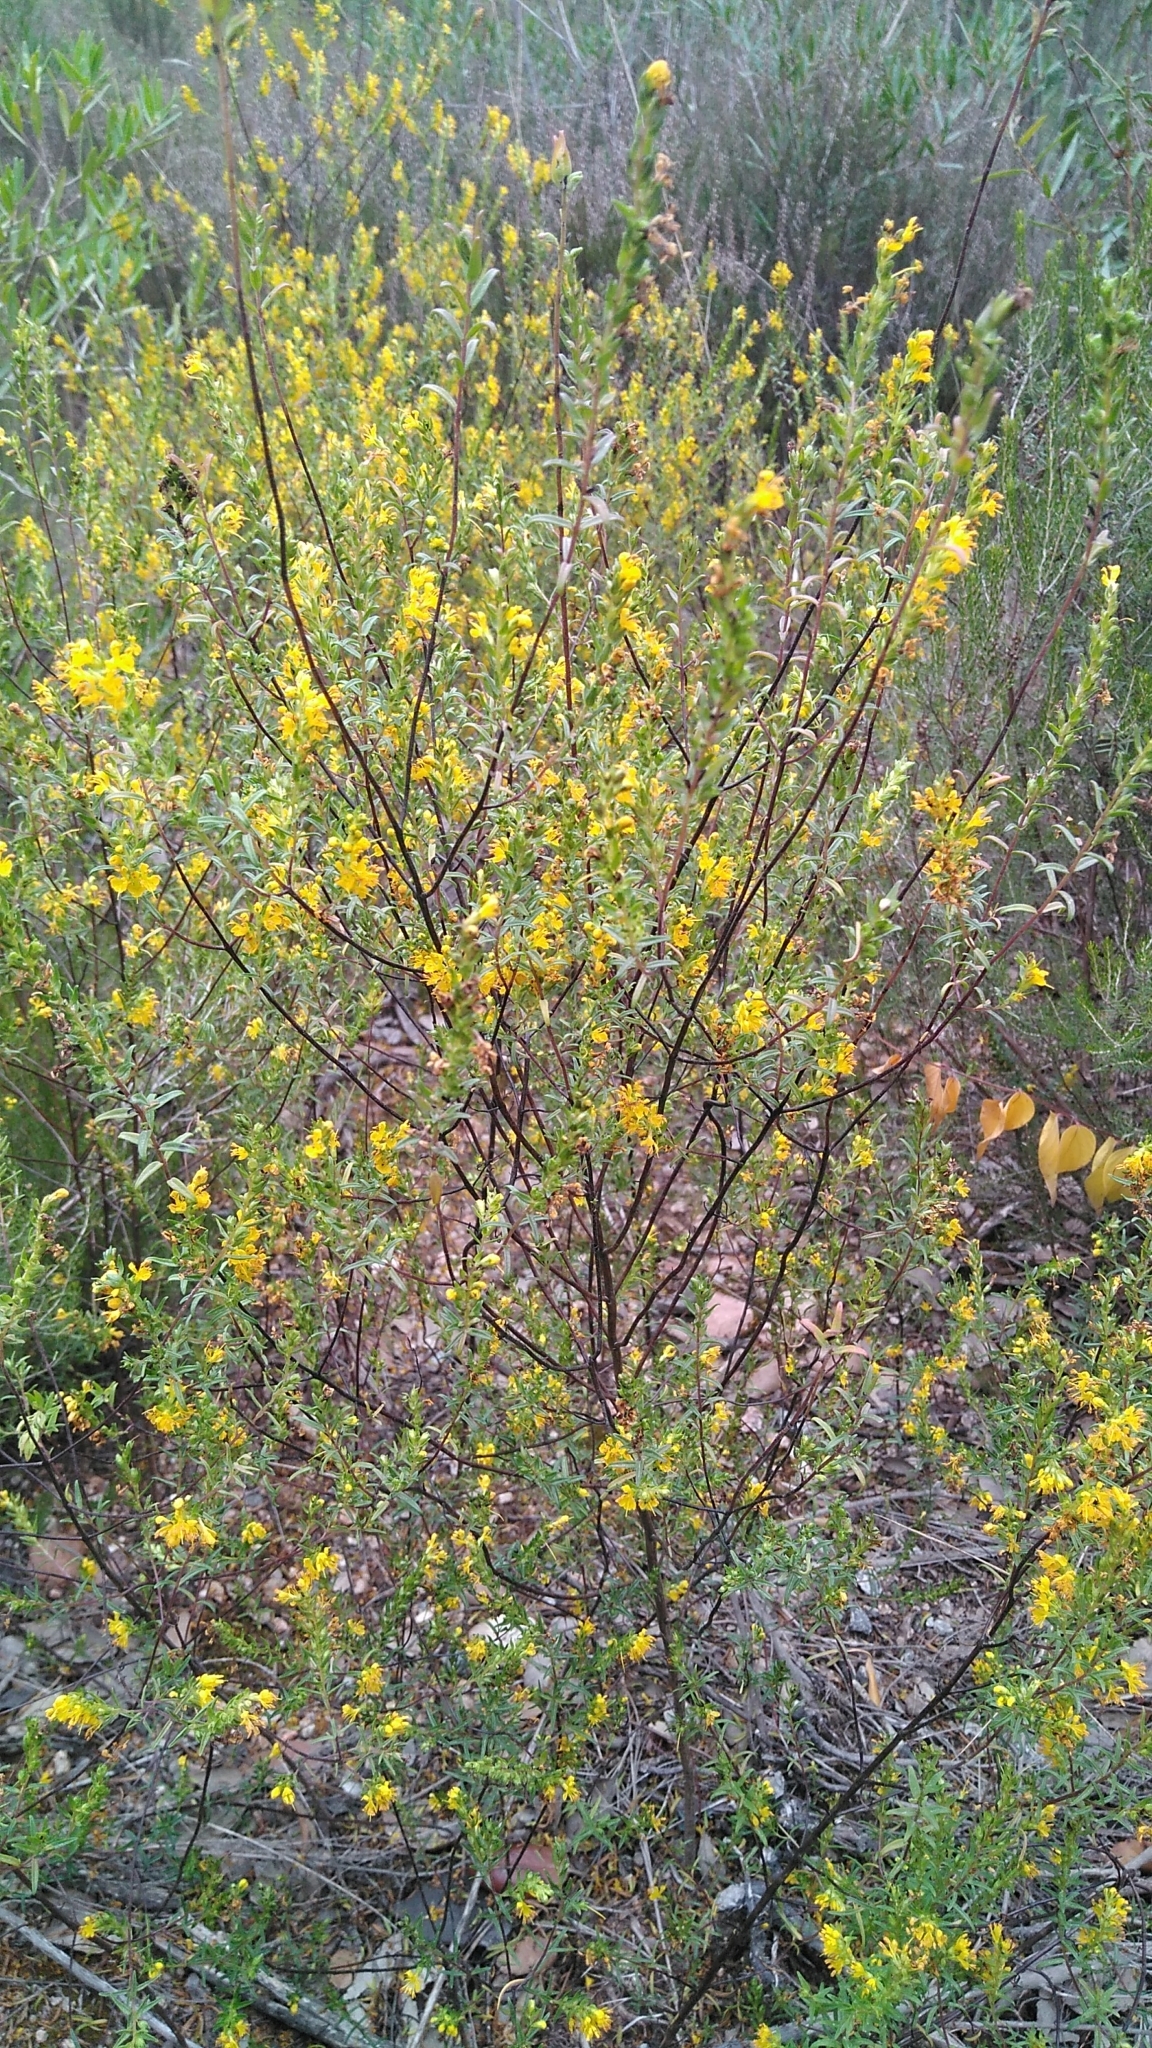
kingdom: Plantae
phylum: Tracheophyta
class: Magnoliopsida
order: Lamiales
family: Orobanchaceae
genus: Odontites
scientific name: Odontites luteus
